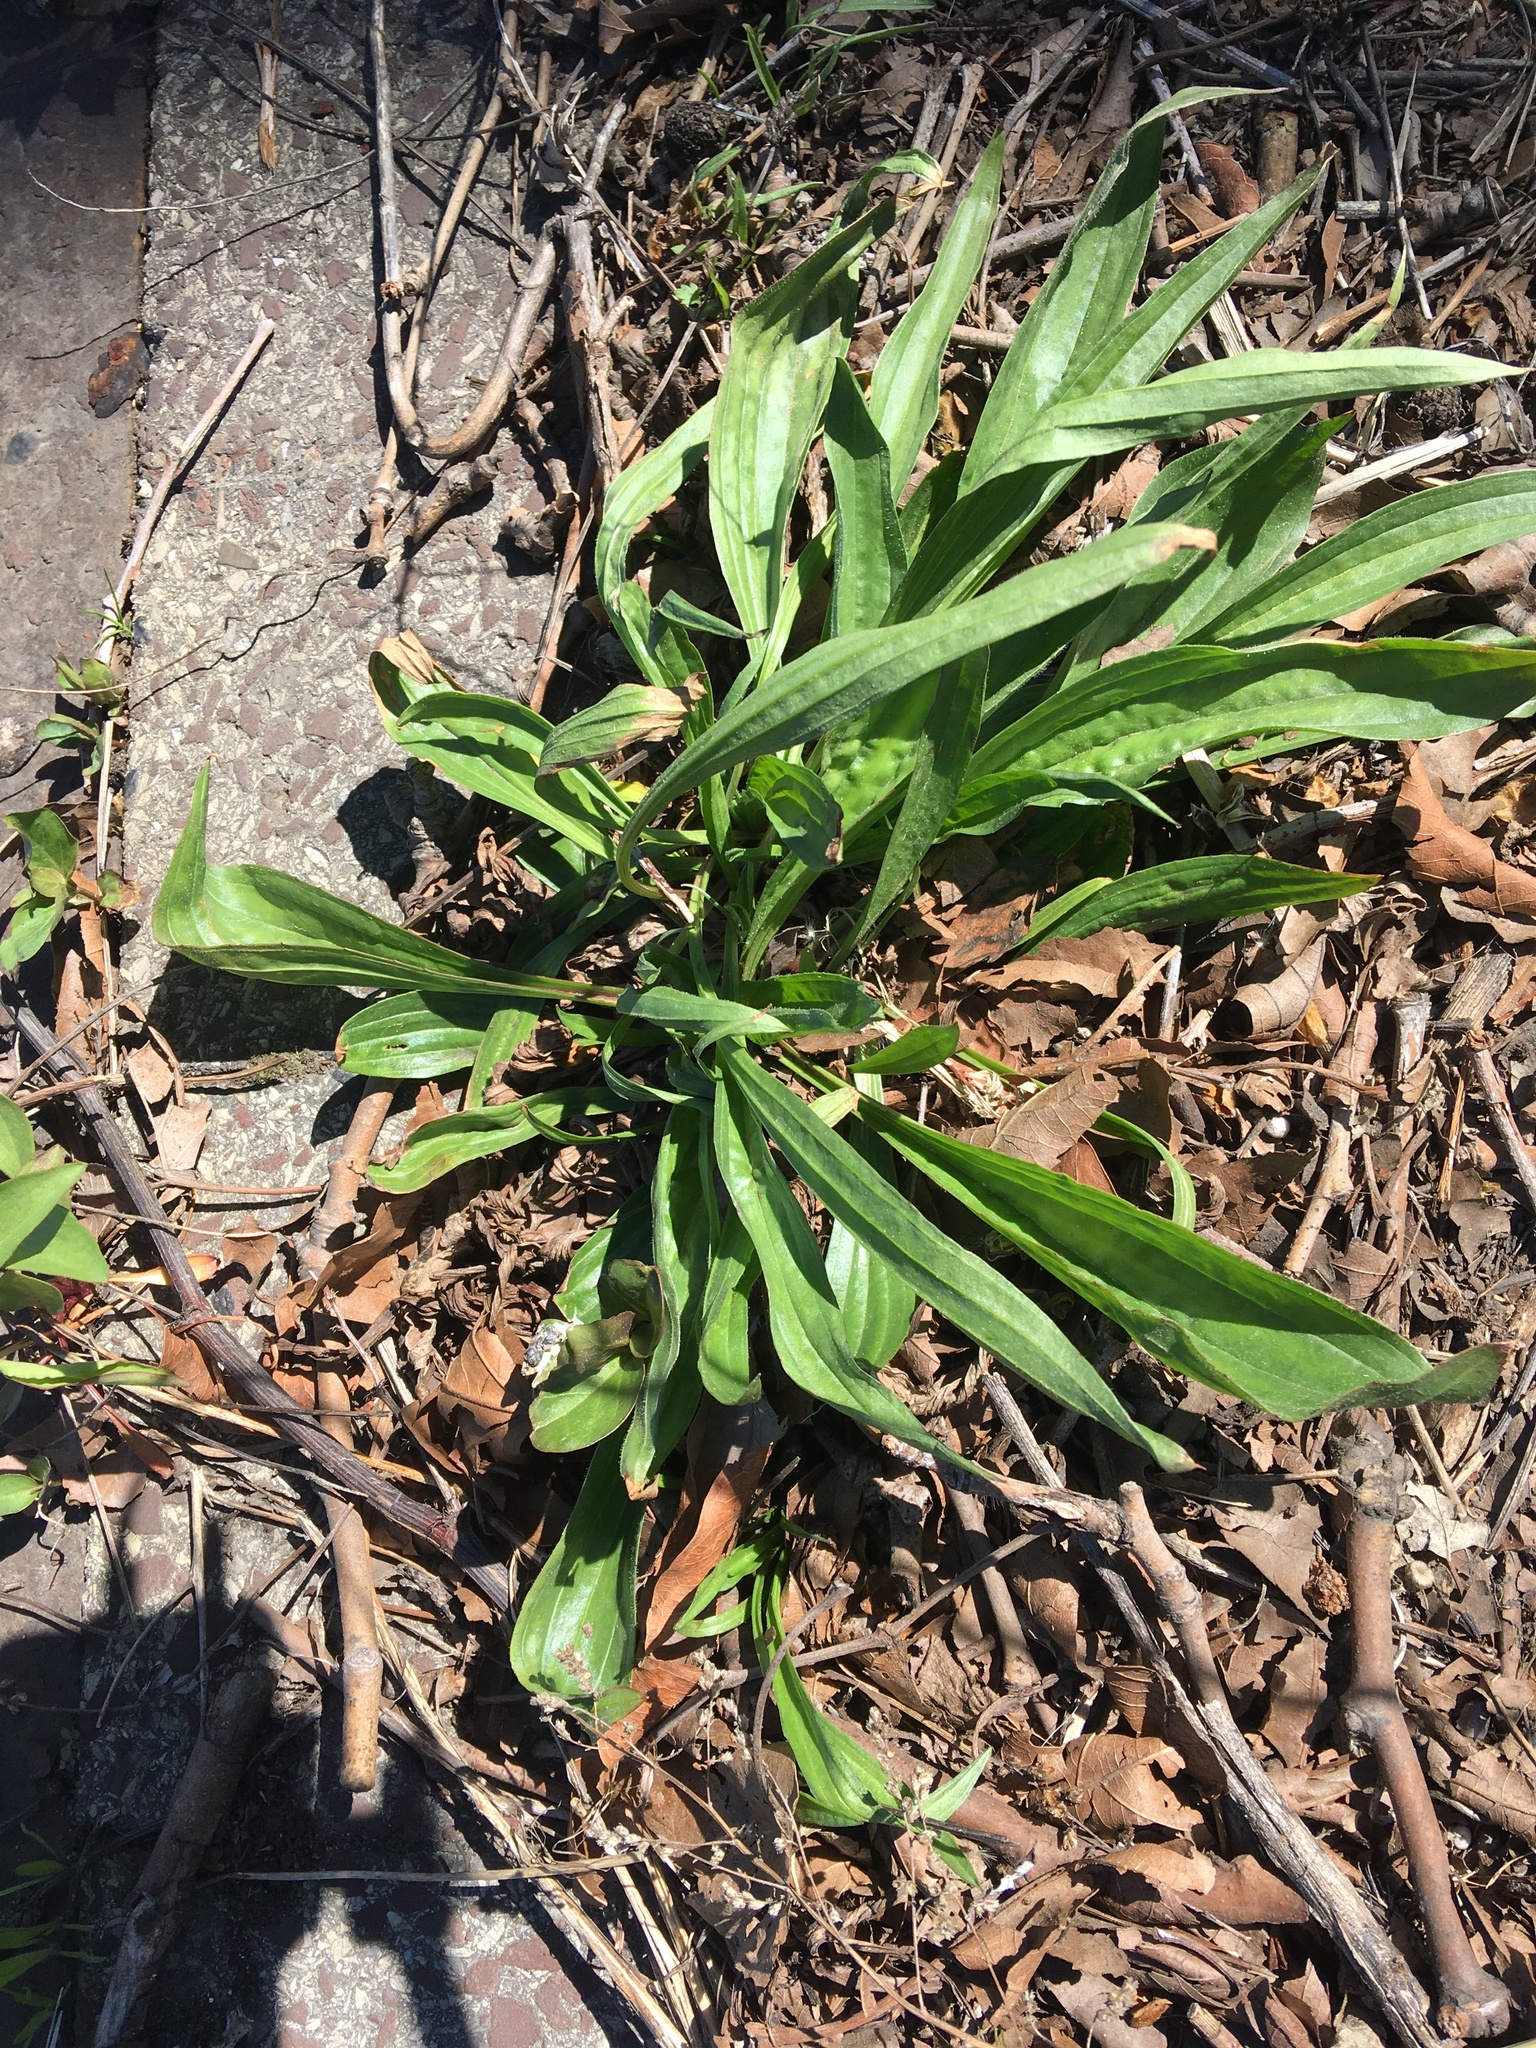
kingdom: Plantae
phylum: Tracheophyta
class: Magnoliopsida
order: Lamiales
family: Plantaginaceae
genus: Plantago
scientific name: Plantago lanceolata
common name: Ribwort plantain
